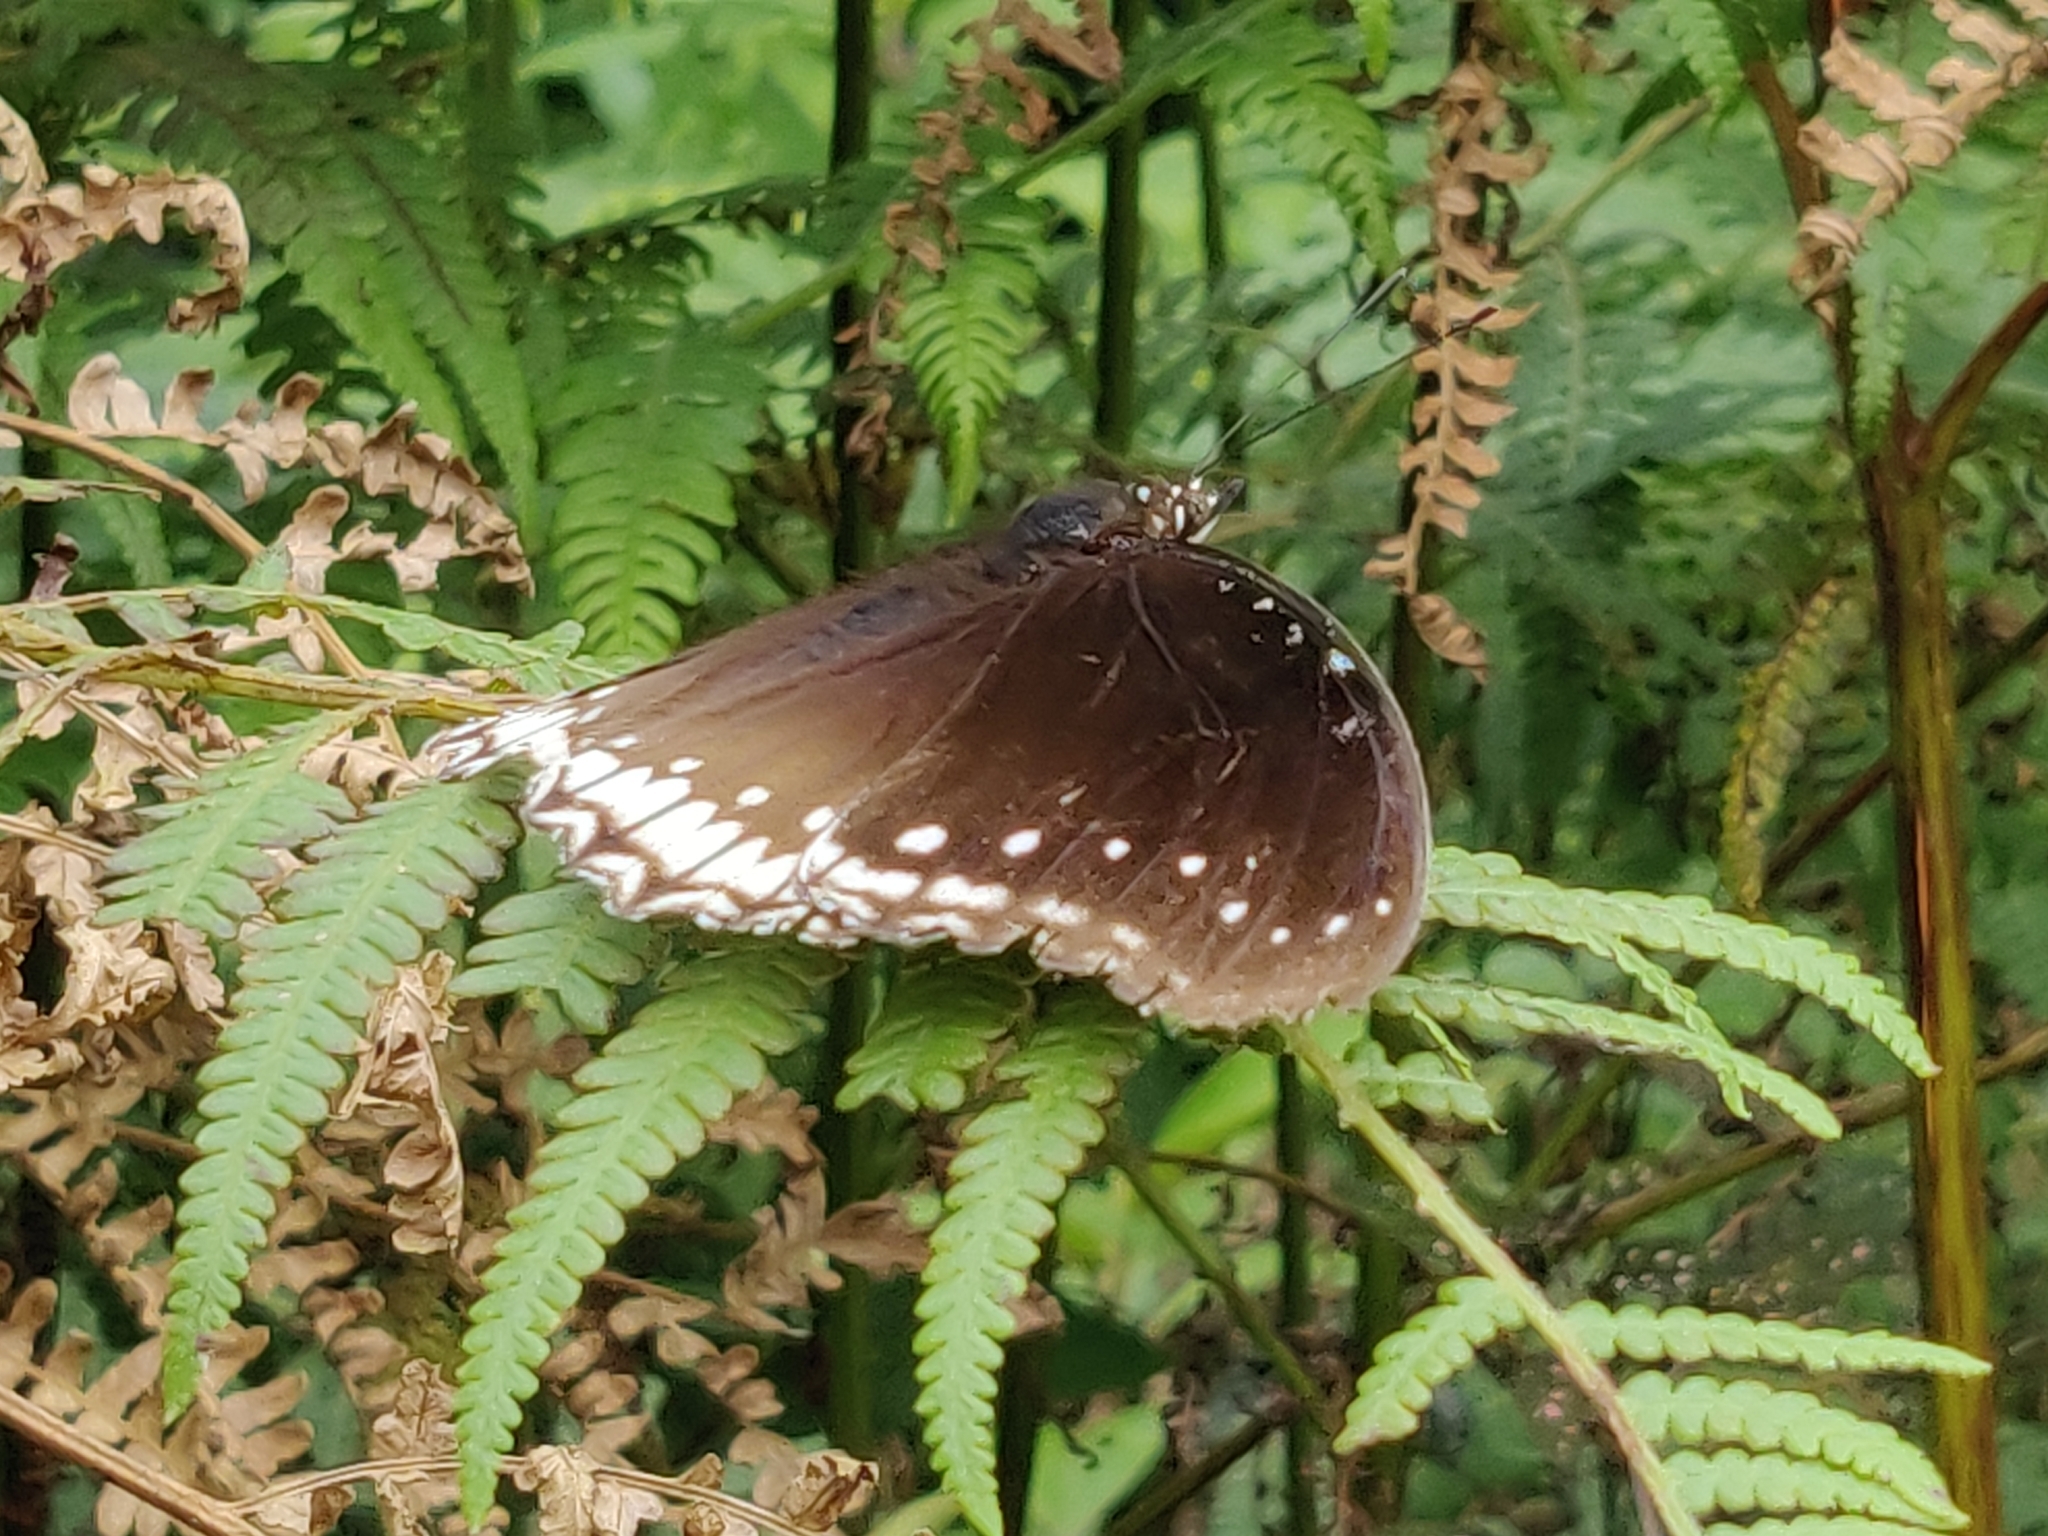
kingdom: Animalia
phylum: Arthropoda
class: Insecta
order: Lepidoptera
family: Nymphalidae
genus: Hypolimnas
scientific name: Hypolimnas bolina
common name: Great eggfly
